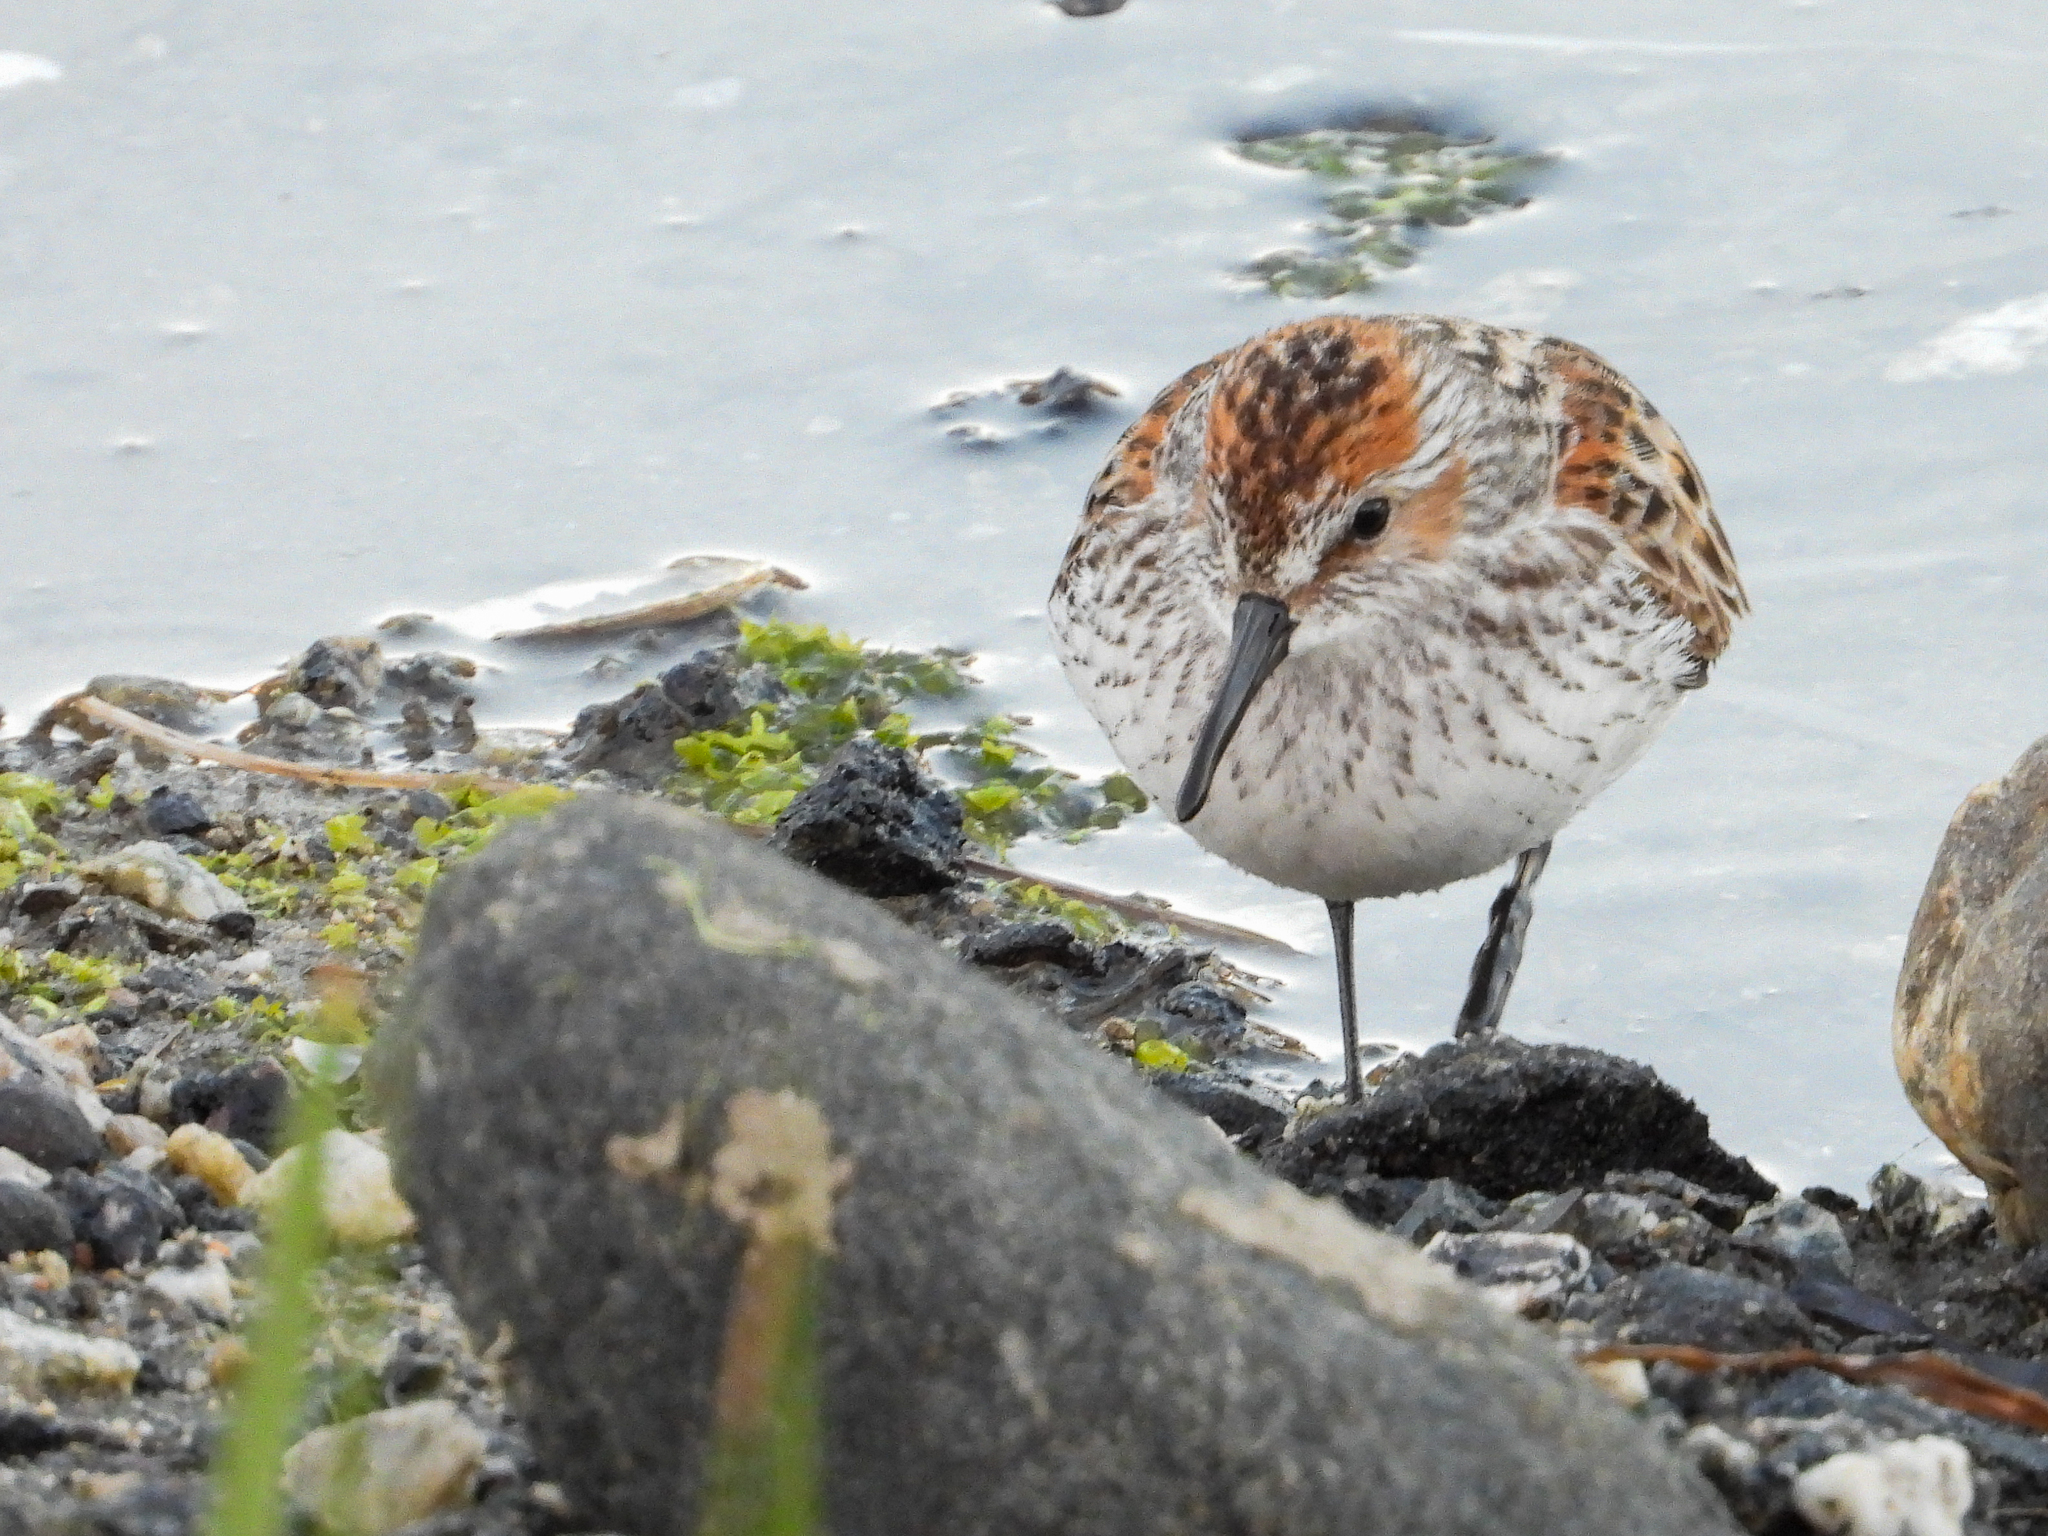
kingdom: Animalia
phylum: Chordata
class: Aves
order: Charadriiformes
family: Scolopacidae
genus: Calidris
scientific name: Calidris mauri
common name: Western sandpiper
